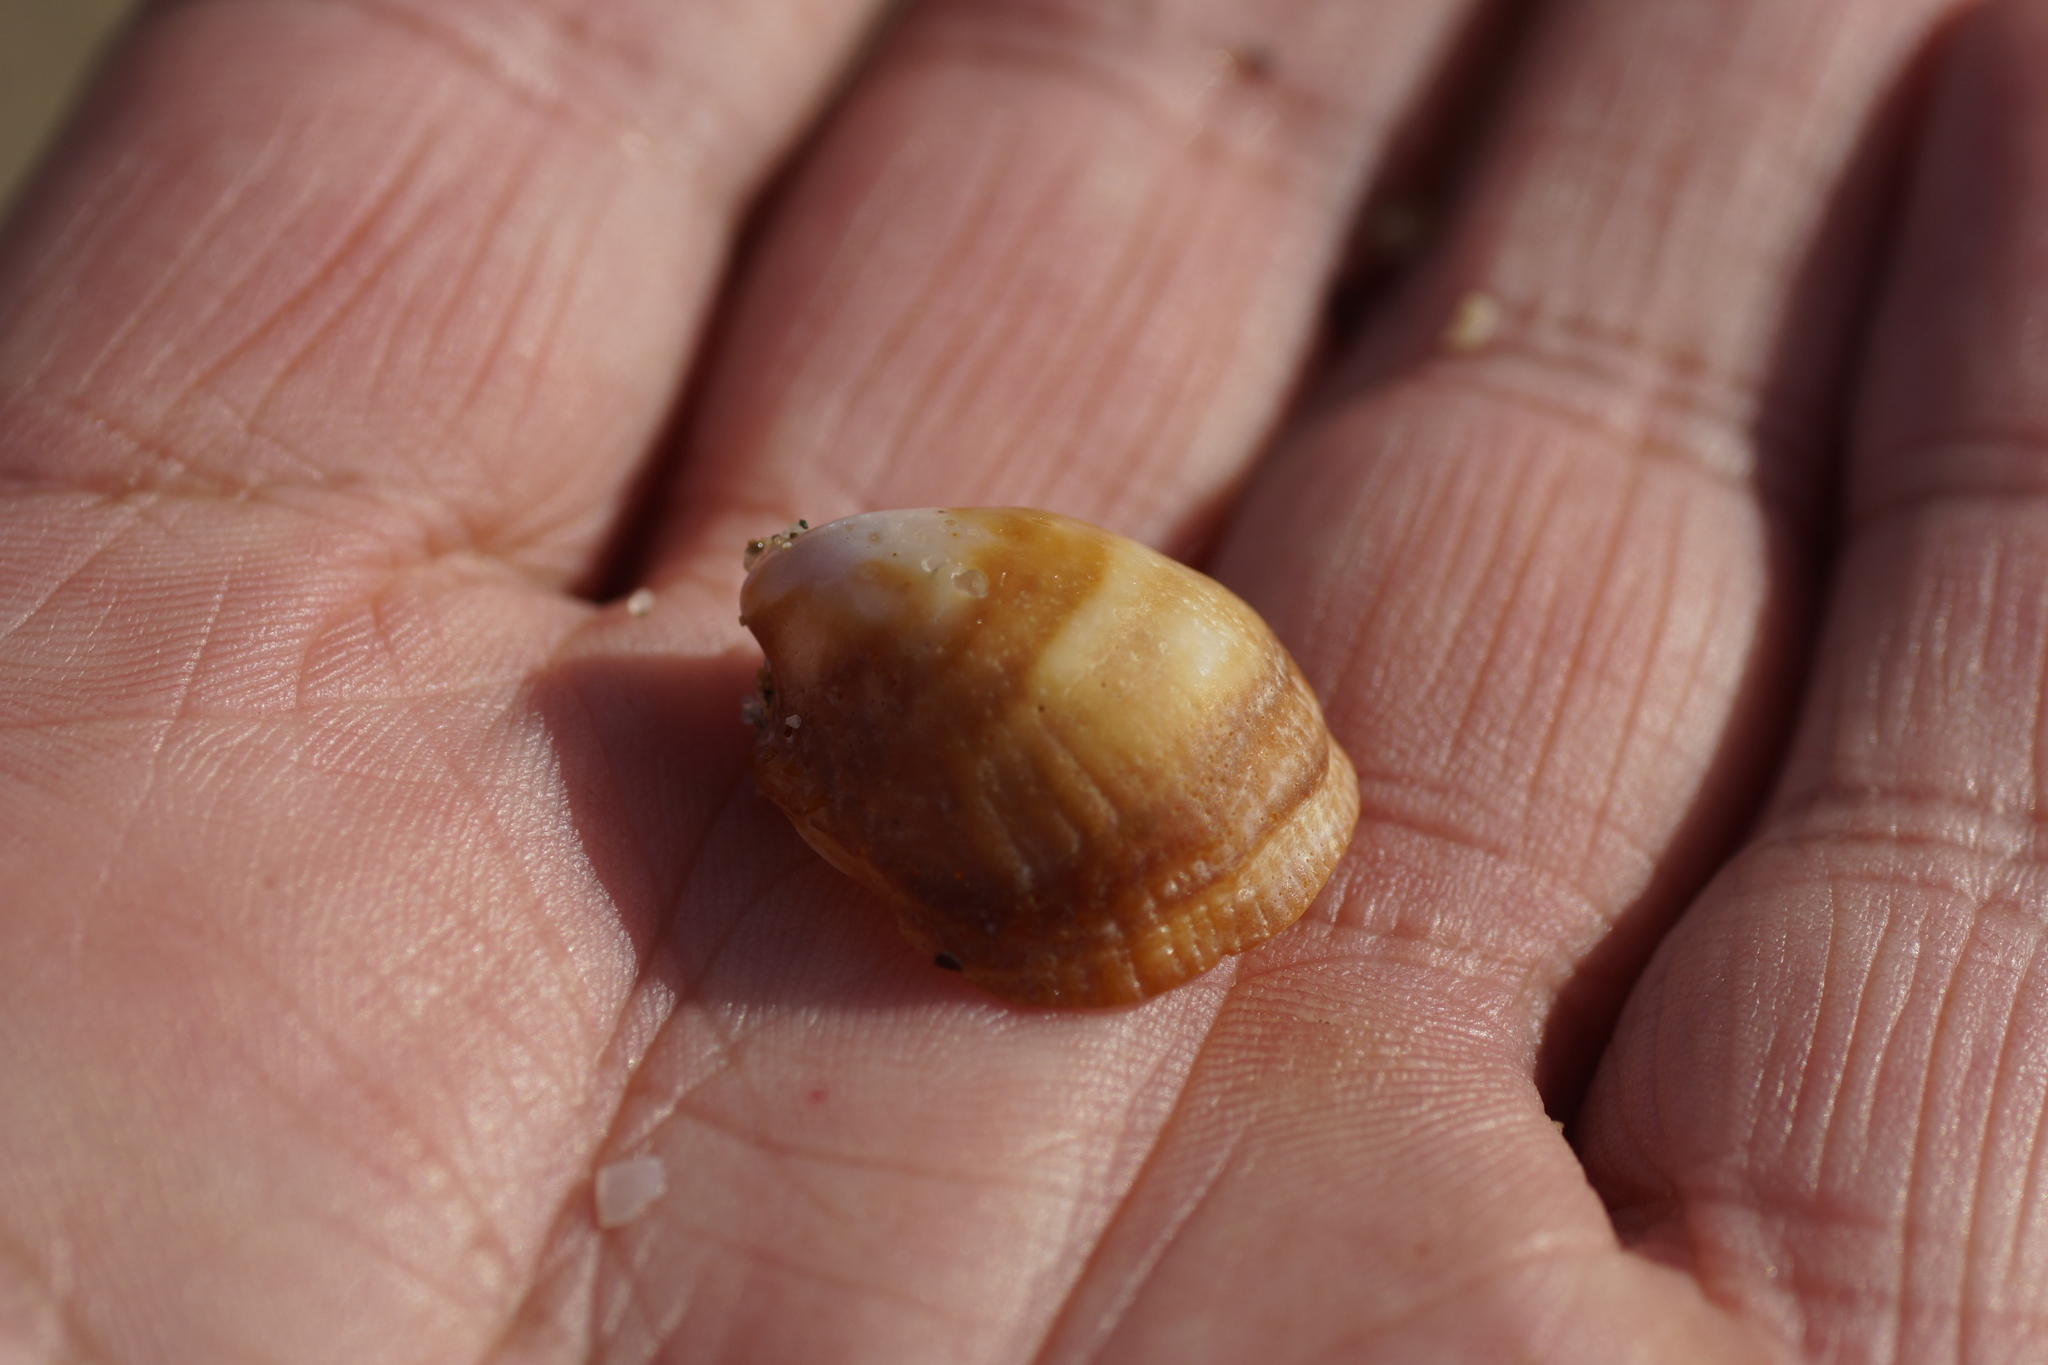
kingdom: Animalia
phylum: Mollusca
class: Gastropoda
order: Littorinimorpha
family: Hipponicidae
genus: Sabia
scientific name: Sabia australis
